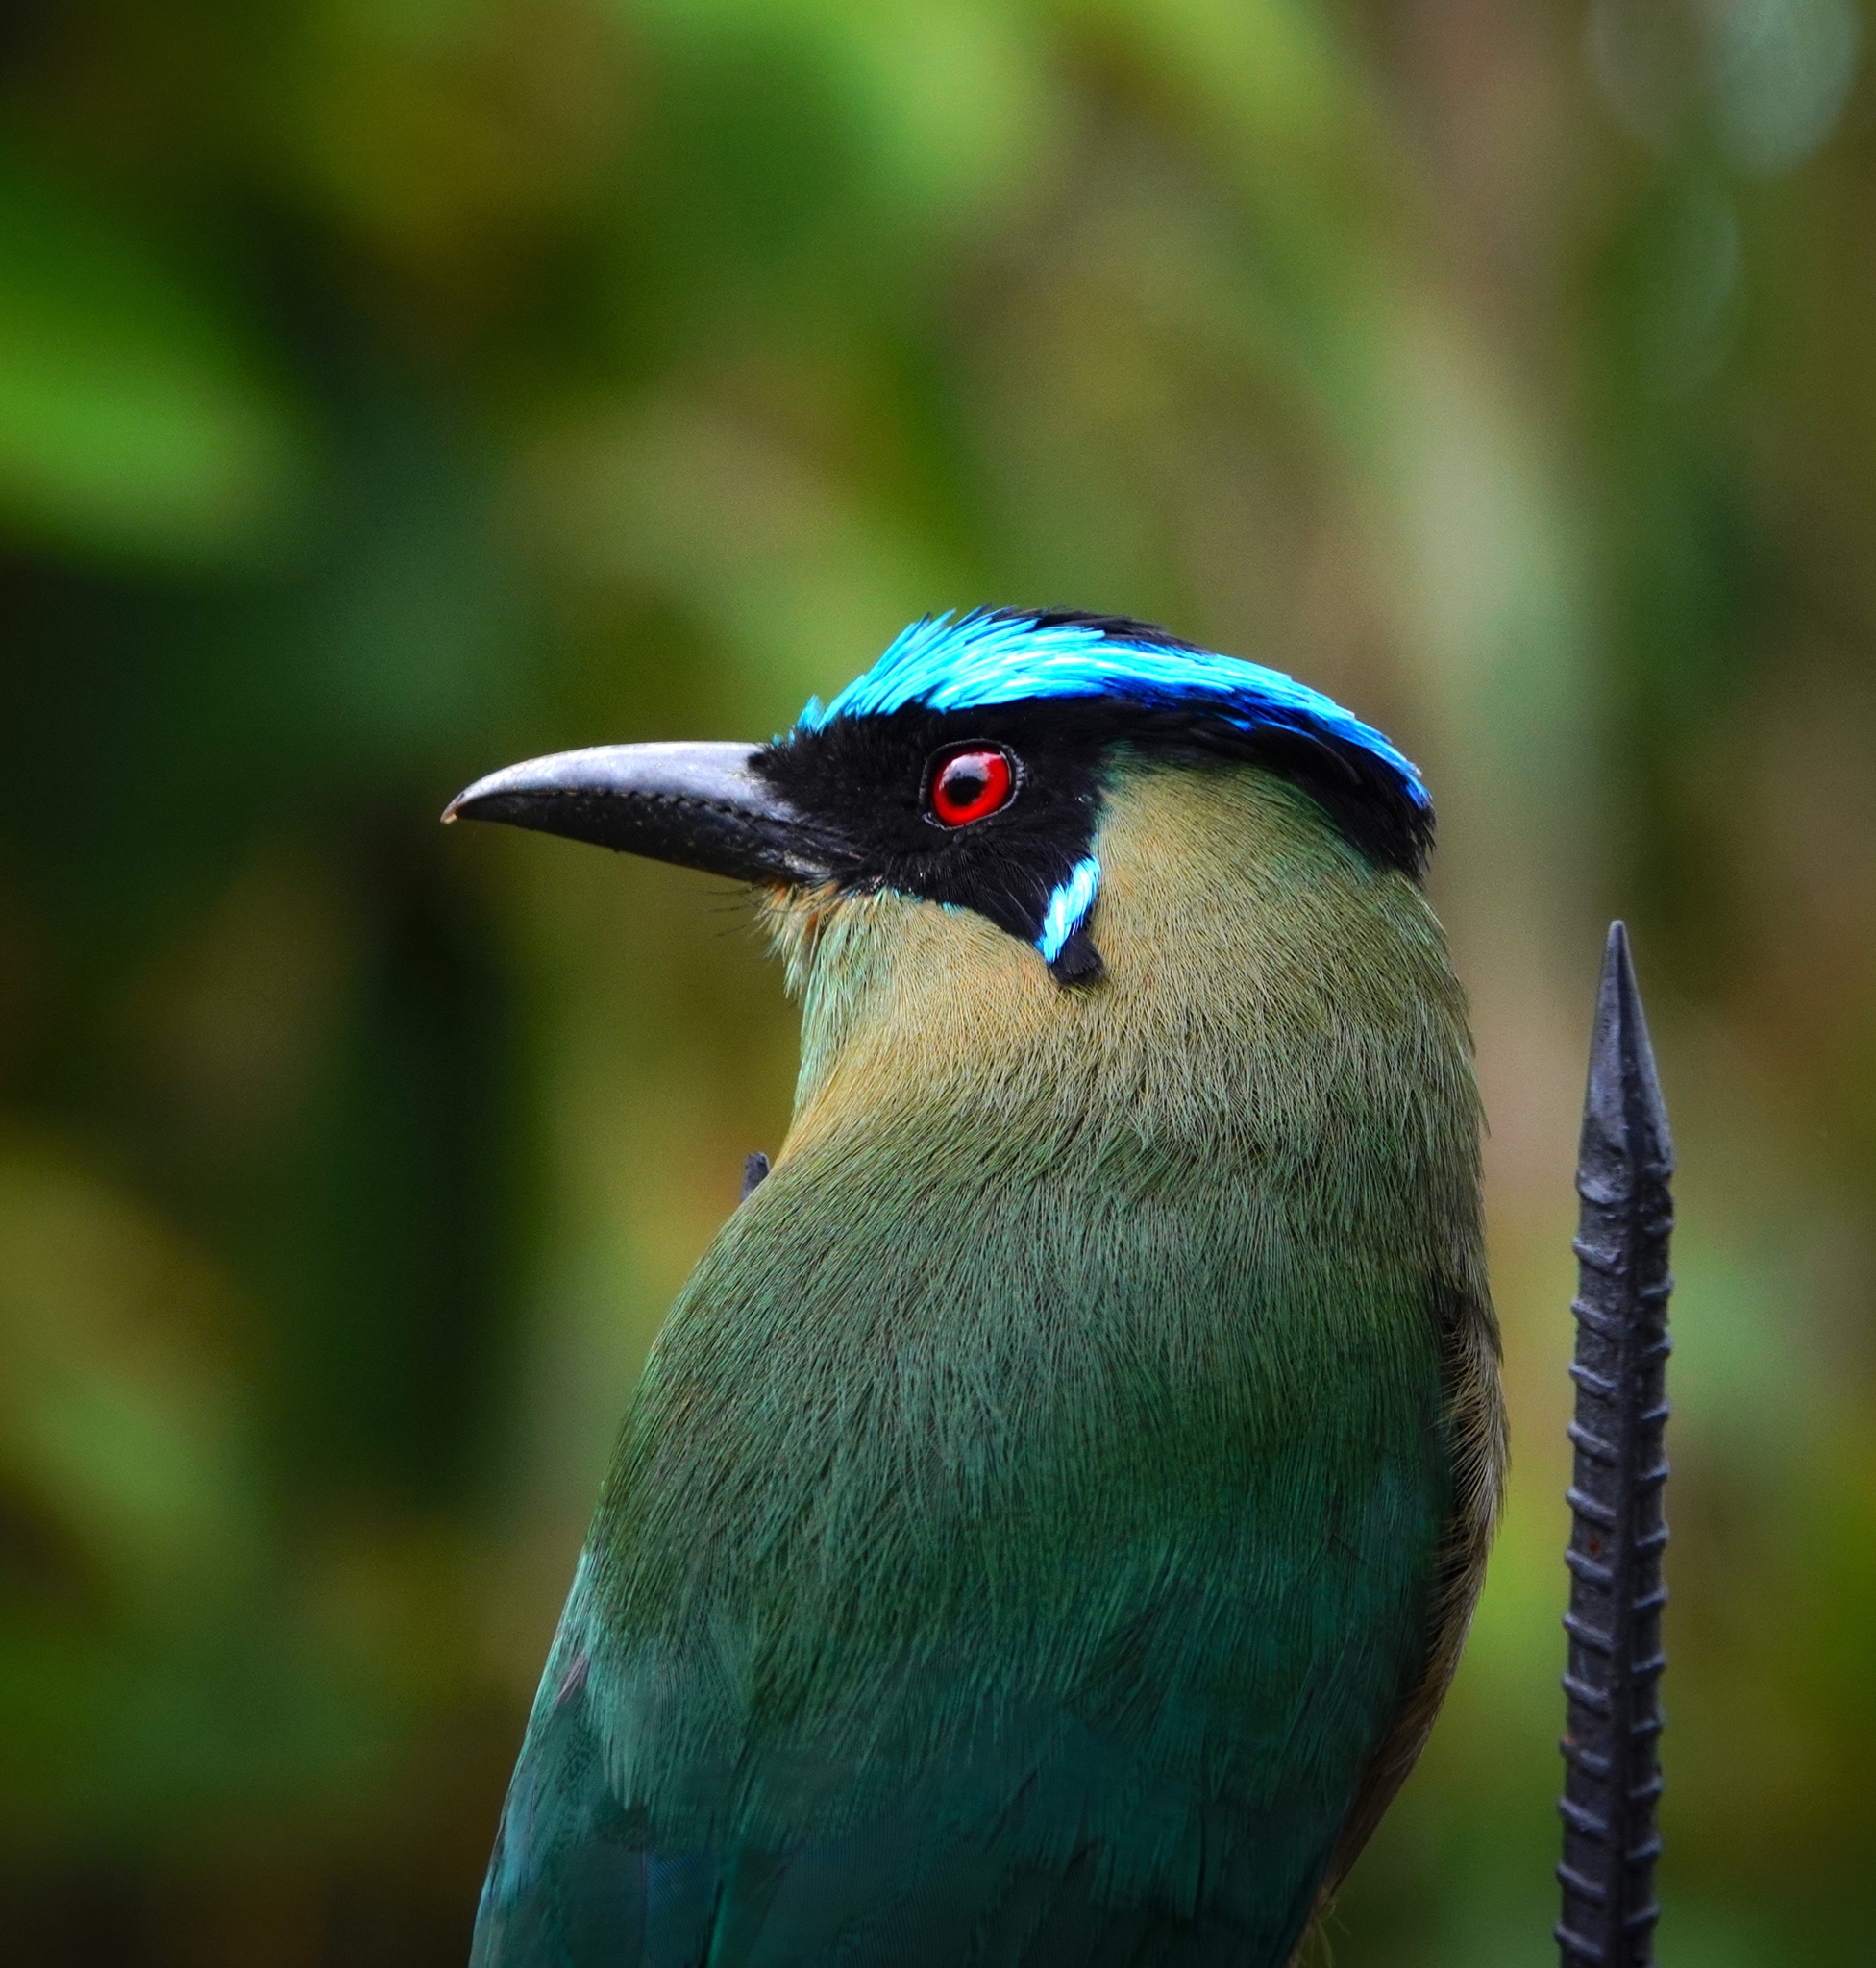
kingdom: Animalia
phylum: Chordata
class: Aves
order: Coraciiformes
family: Momotidae
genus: Momotus
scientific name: Momotus aequatorialis
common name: Andean motmot
